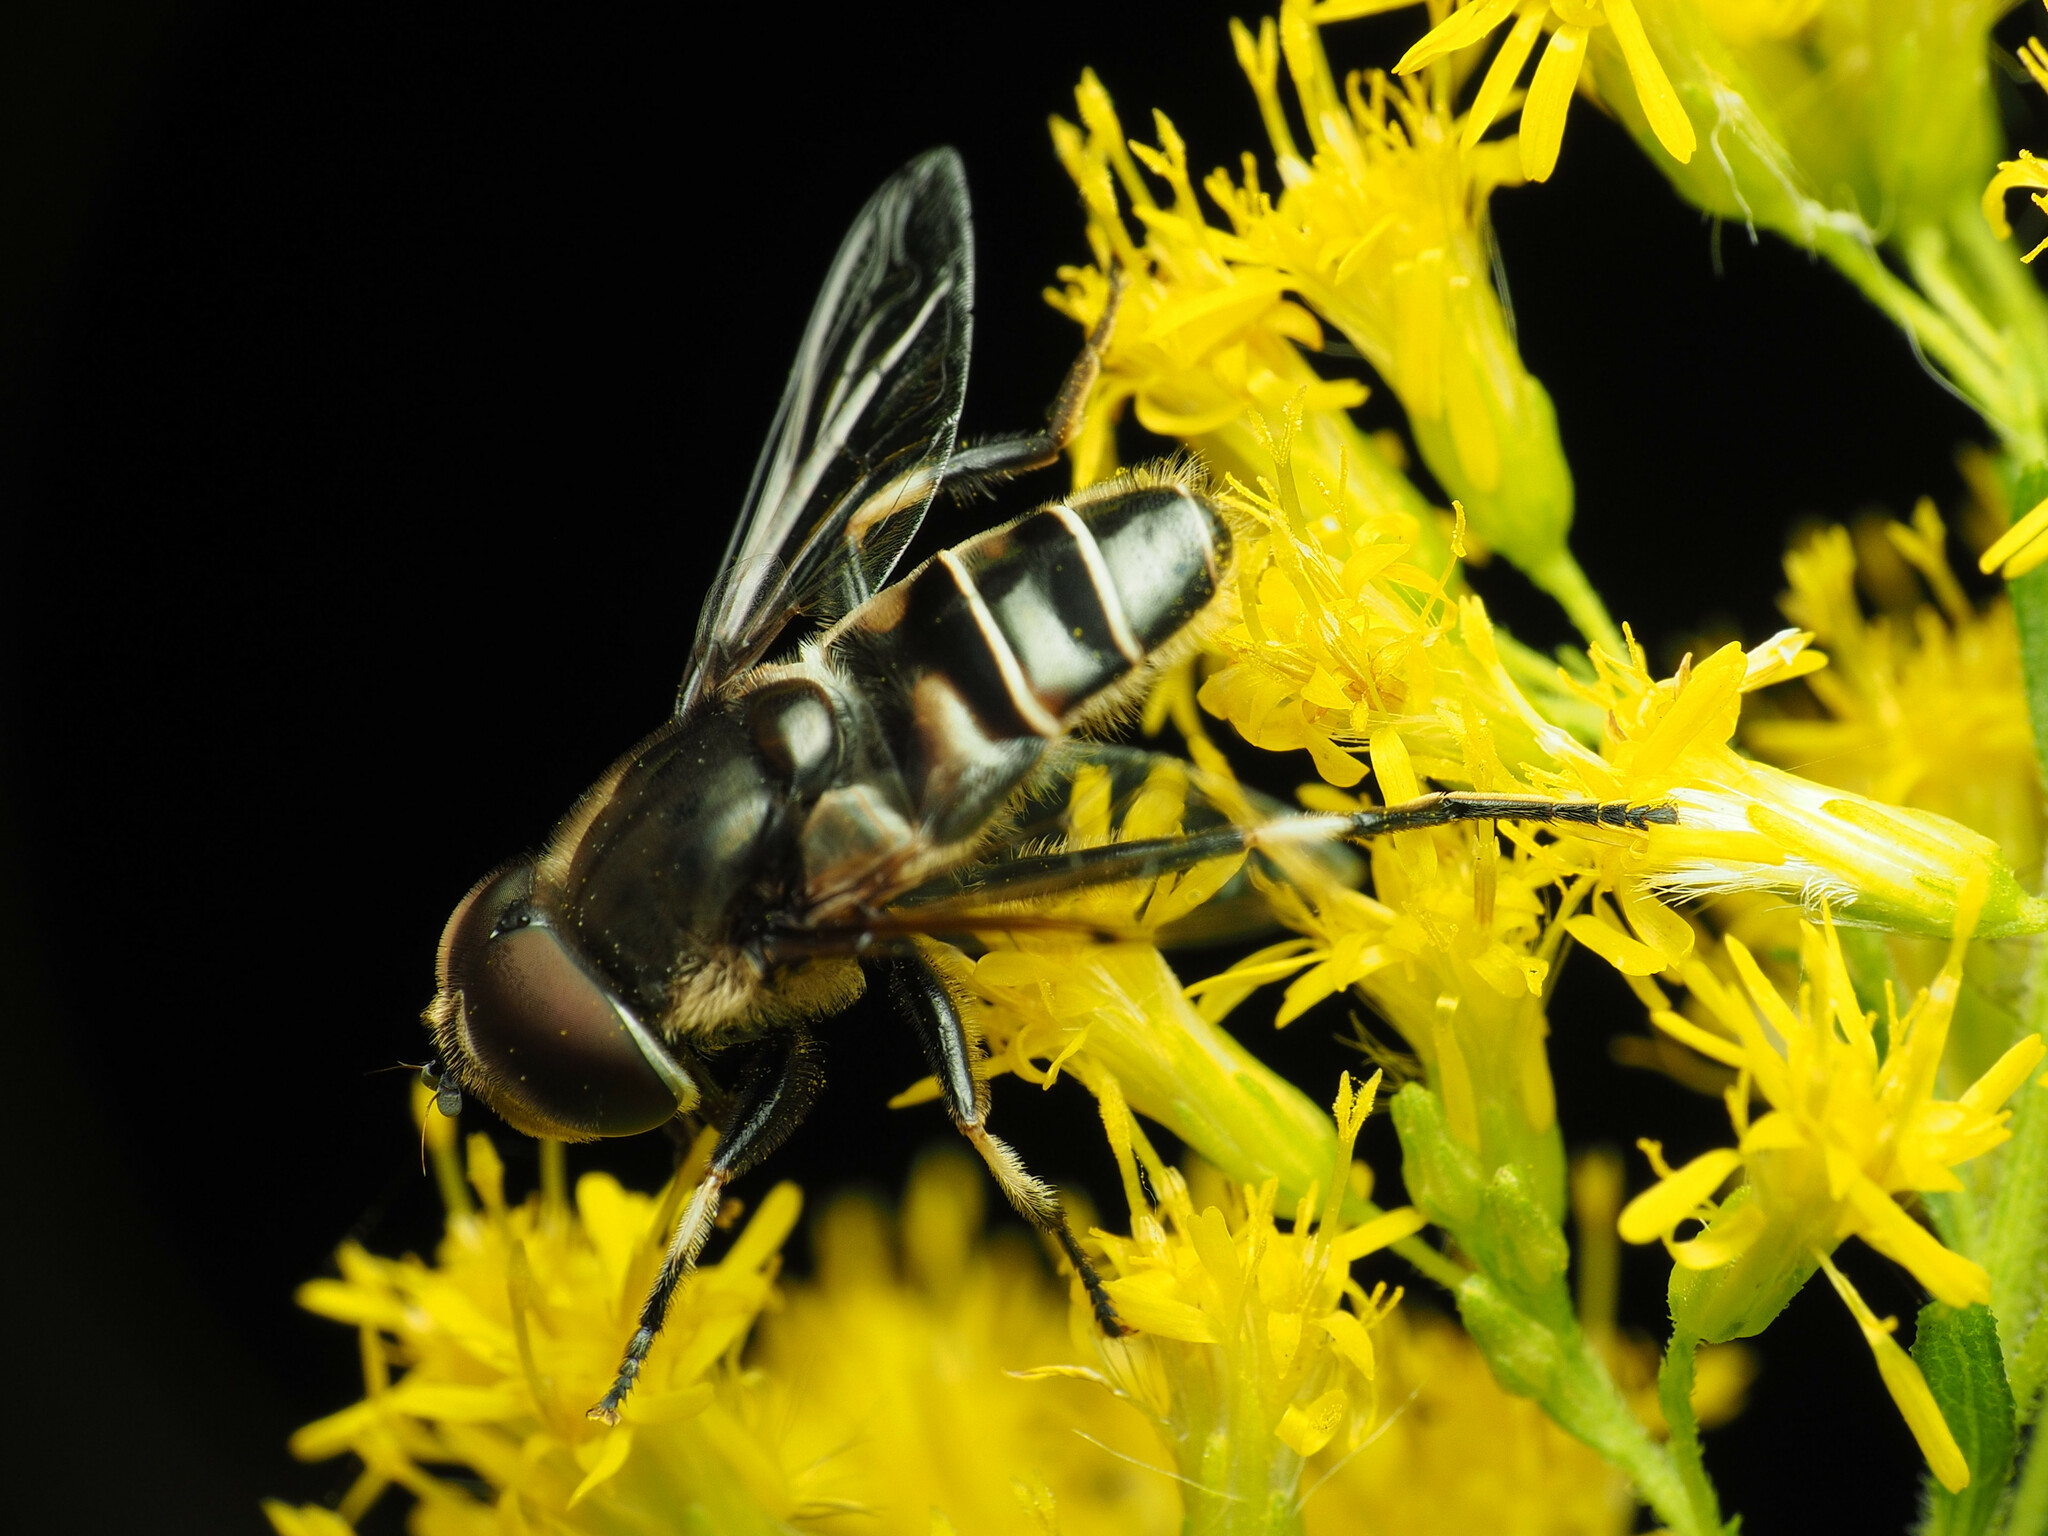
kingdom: Animalia
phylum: Arthropoda
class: Insecta
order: Diptera
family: Syrphidae
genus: Eristalis
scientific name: Eristalis dimidiata
